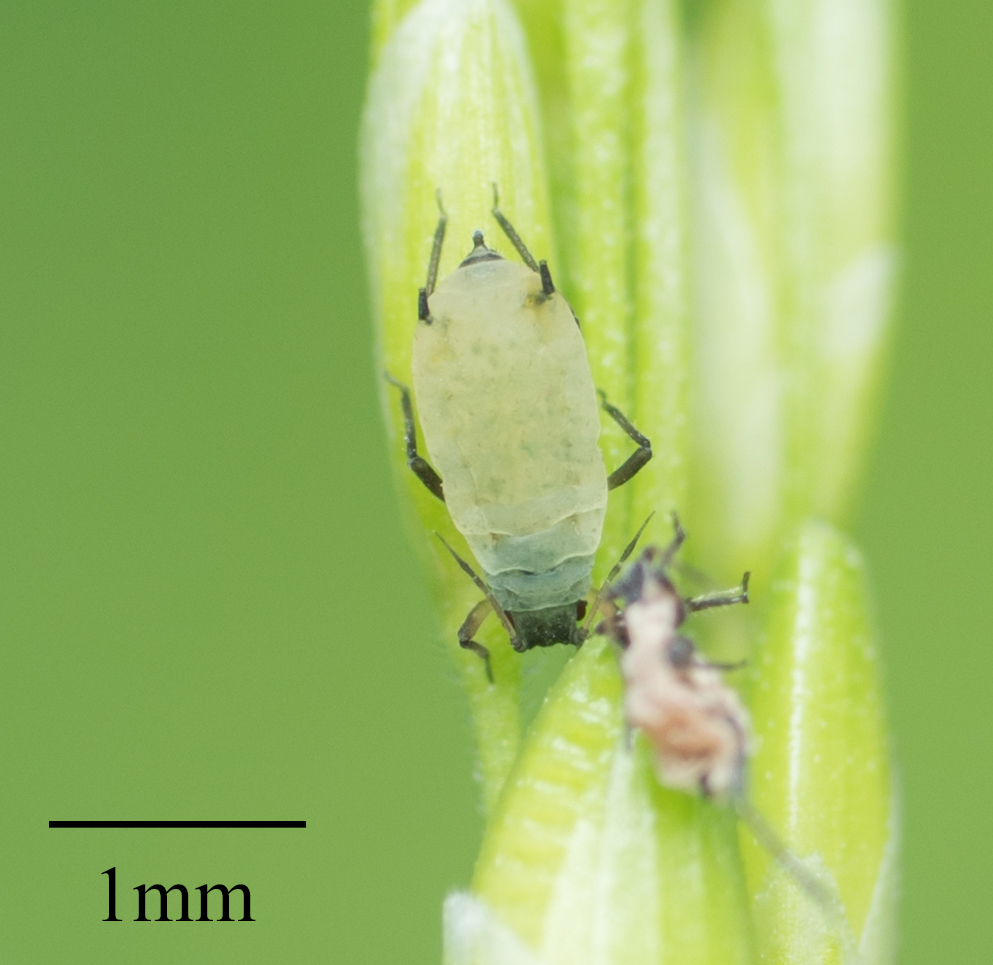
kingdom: Animalia
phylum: Arthropoda
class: Insecta
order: Hemiptera
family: Aphididae
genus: Rhopalosiphum
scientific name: Rhopalosiphum maidis
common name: Corn leaf aphid
